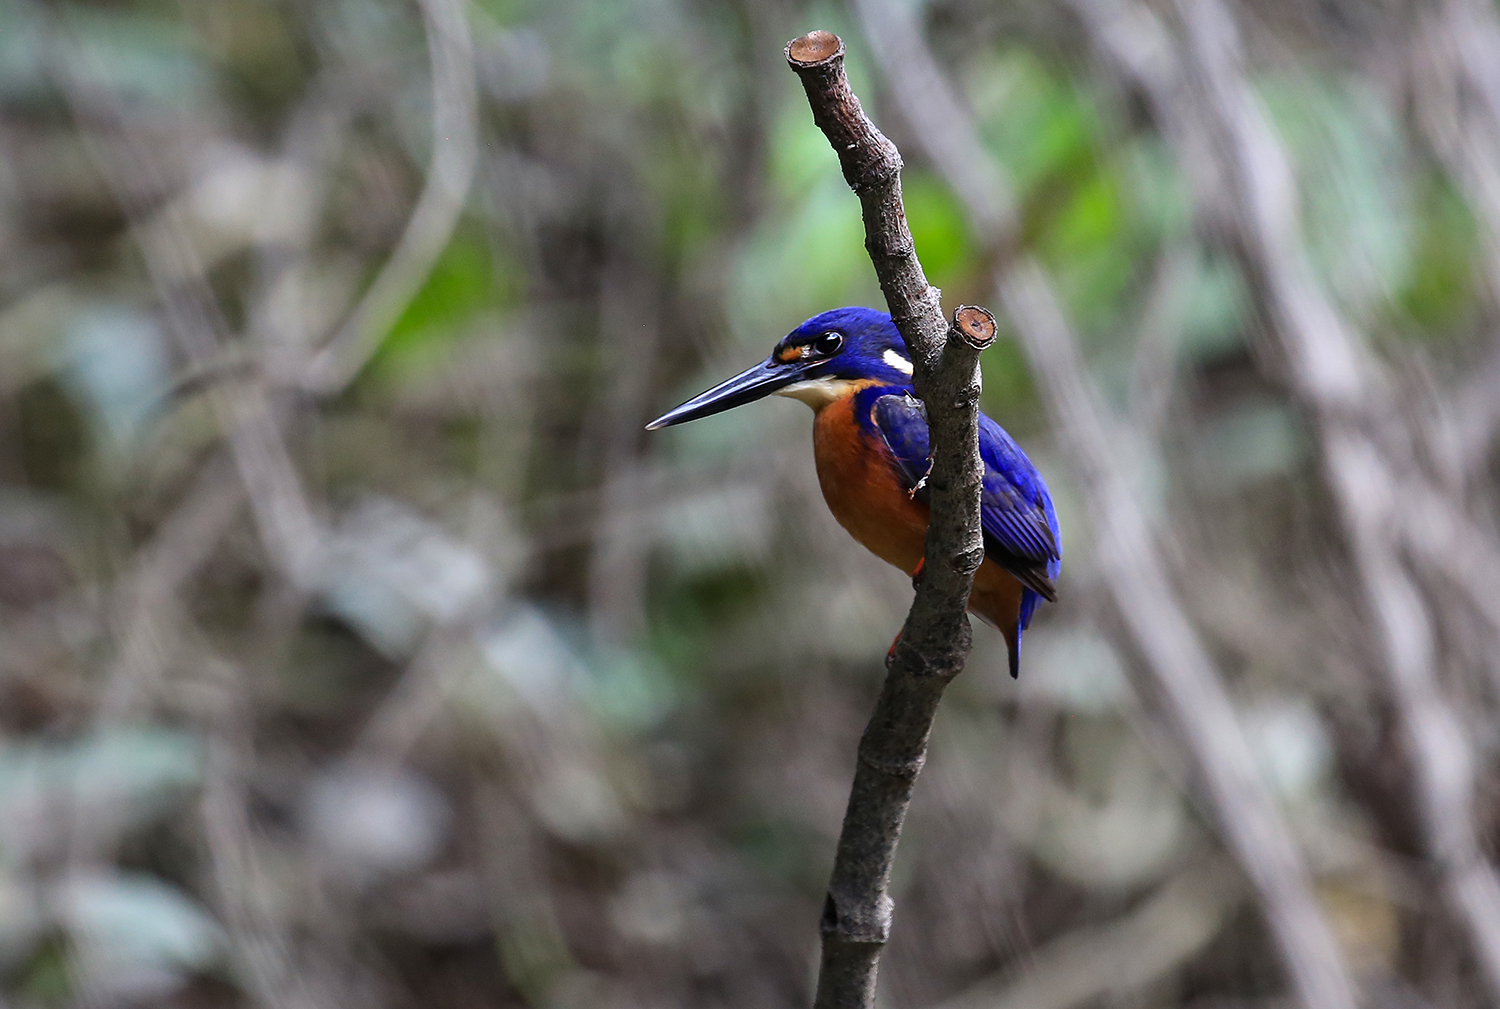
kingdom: Animalia
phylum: Chordata
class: Aves
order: Coraciiformes
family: Alcedinidae
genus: Ceyx
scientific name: Ceyx azureus
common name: Azure kingfisher
